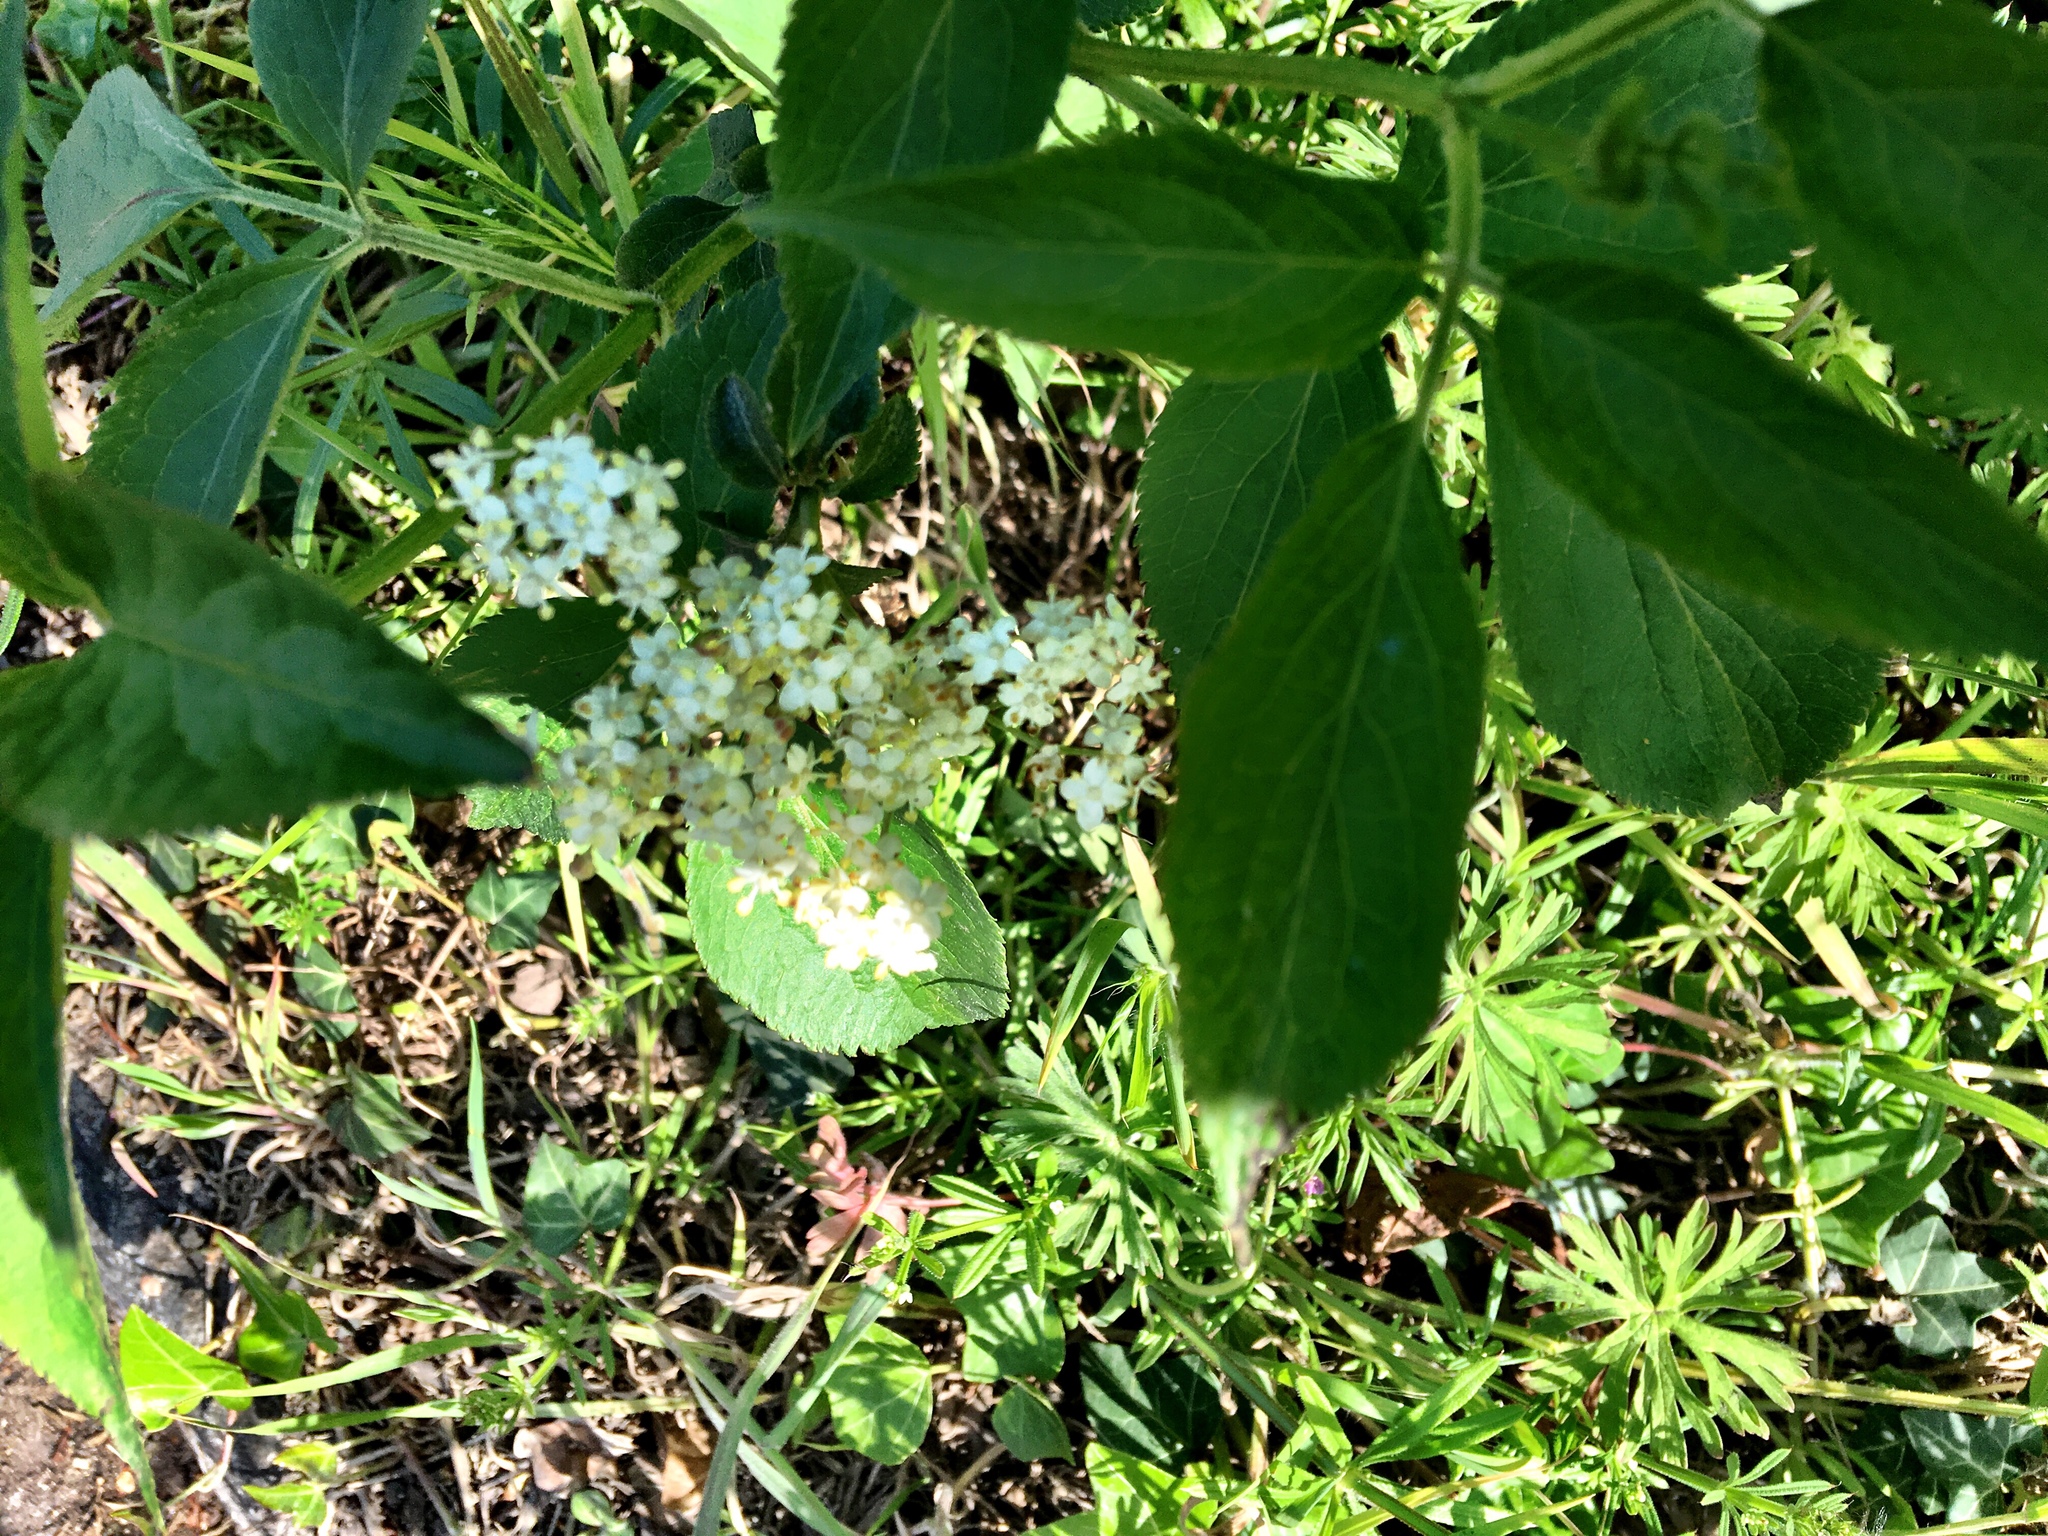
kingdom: Plantae
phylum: Tracheophyta
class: Magnoliopsida
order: Dipsacales
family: Viburnaceae
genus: Sambucus
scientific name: Sambucus nigra
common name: Elder
